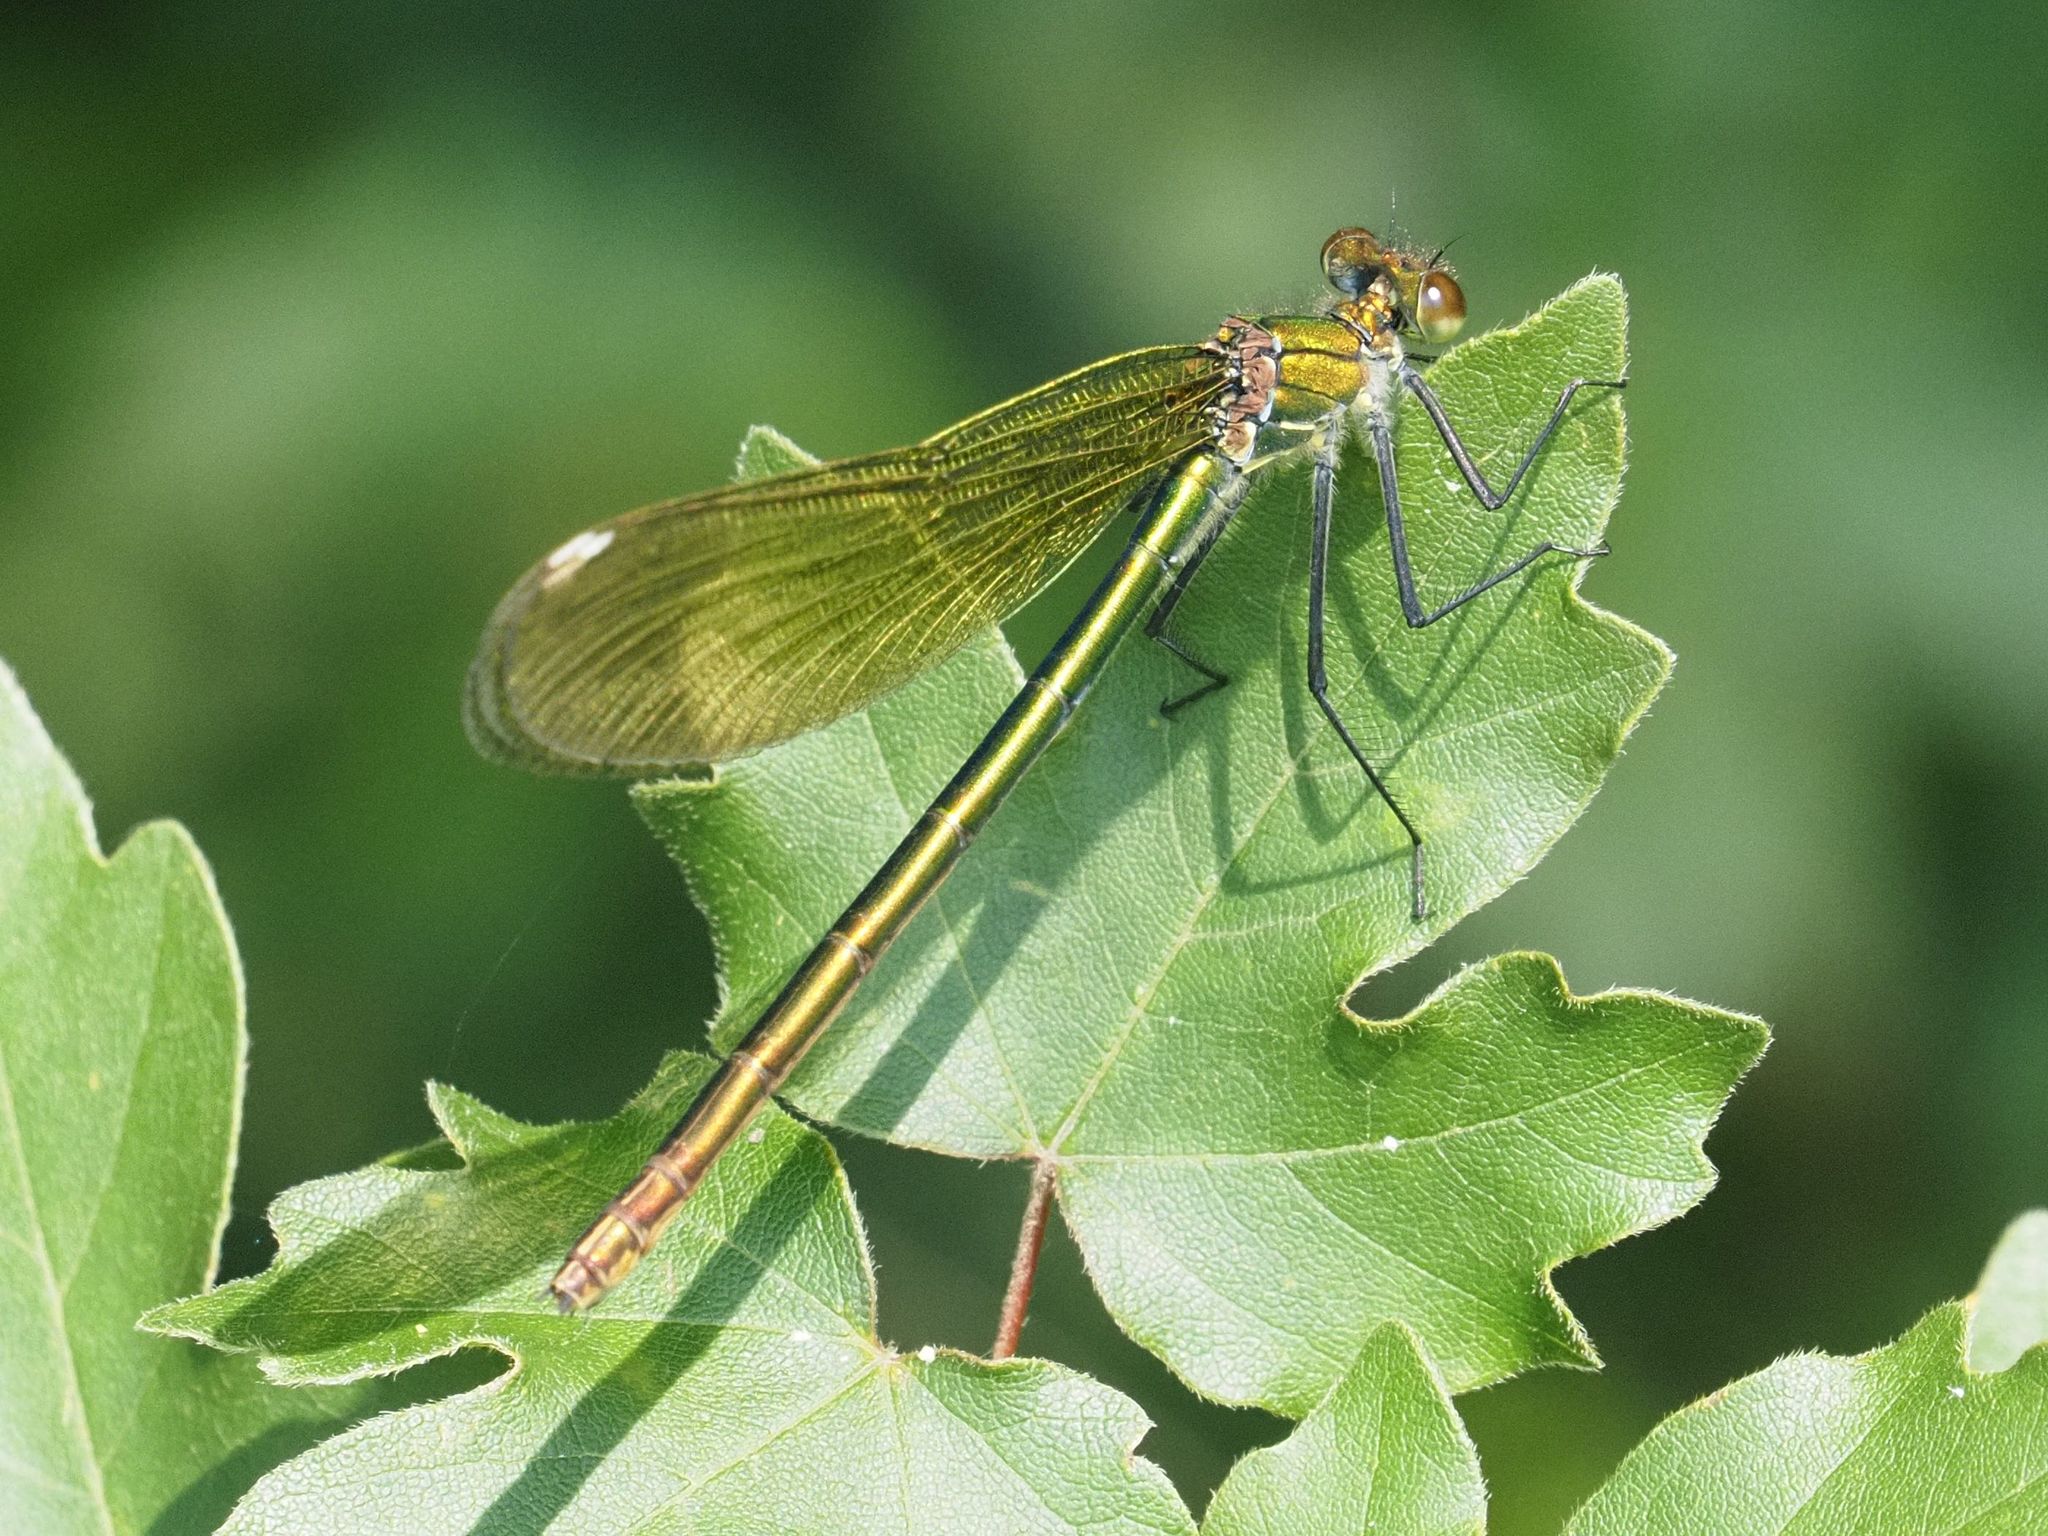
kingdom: Animalia
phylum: Arthropoda
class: Insecta
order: Odonata
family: Calopterygidae
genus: Calopteryx
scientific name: Calopteryx splendens
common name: Banded demoiselle
